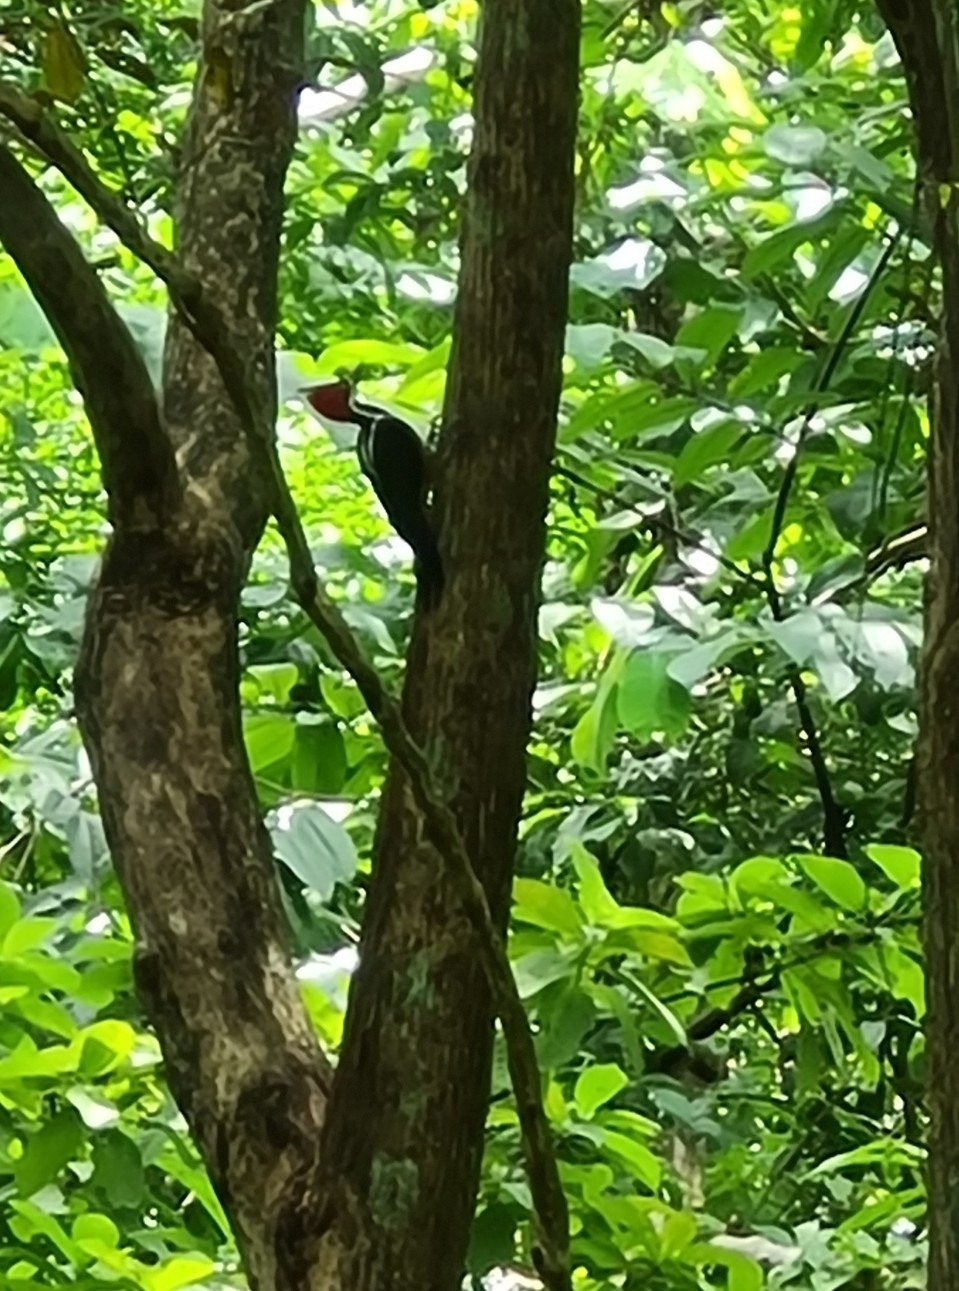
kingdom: Animalia
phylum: Chordata
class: Aves
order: Piciformes
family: Picidae
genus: Campephilus
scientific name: Campephilus melanoleucos
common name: Crimson-crested woodpecker
